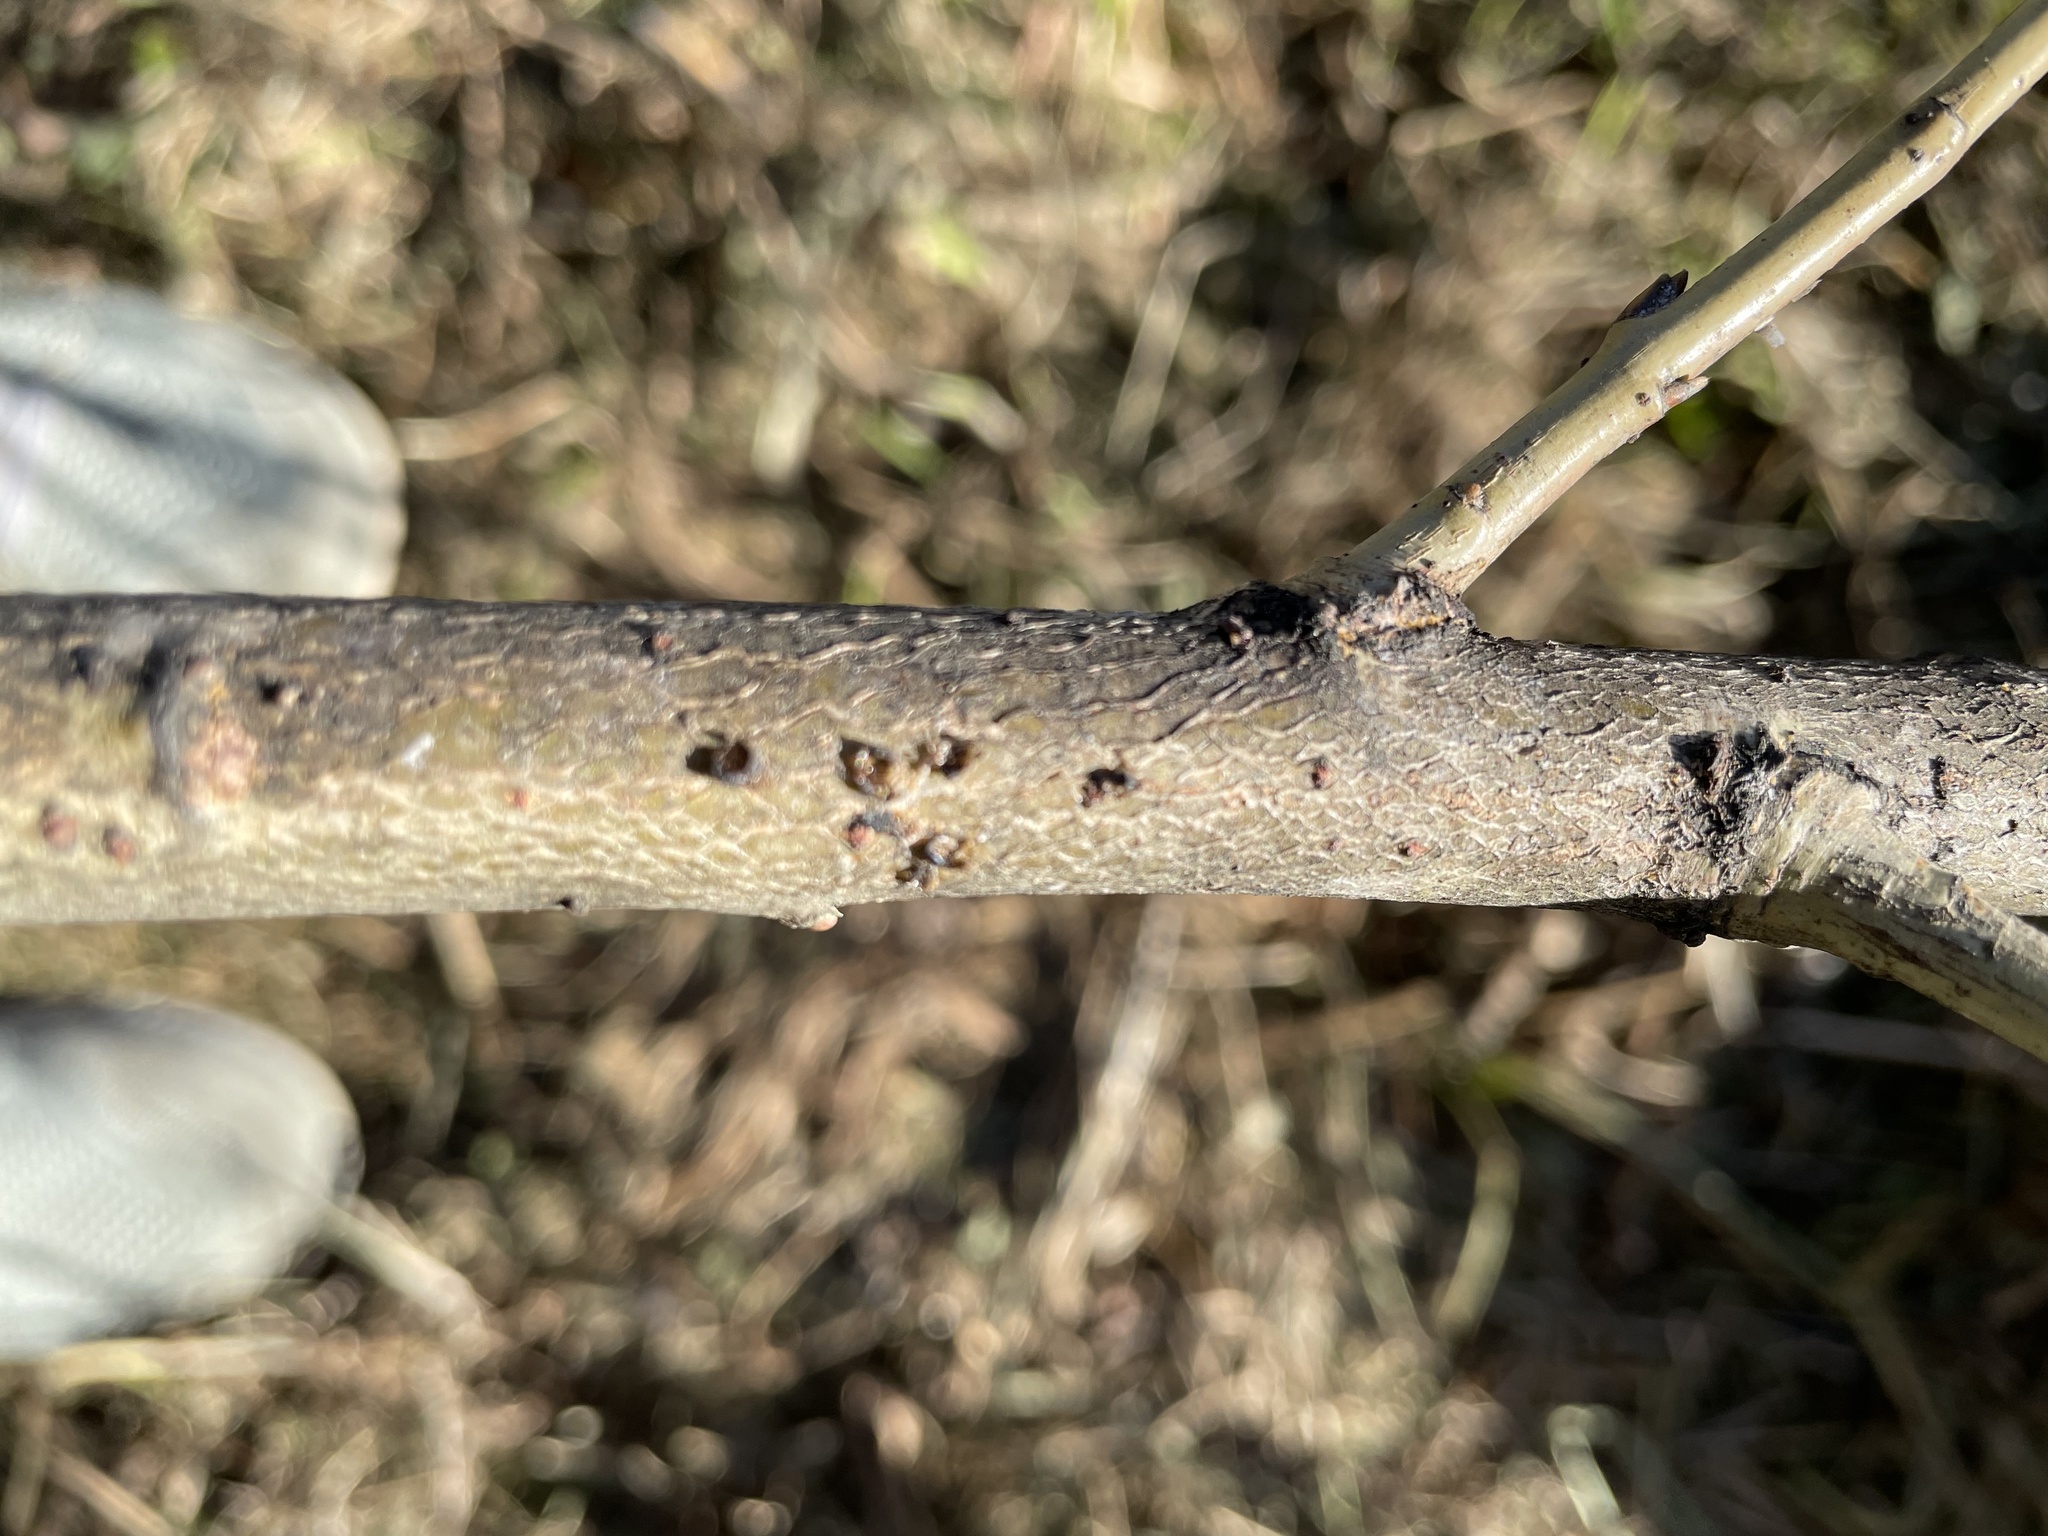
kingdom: Animalia
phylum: Arthropoda
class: Insecta
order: Hymenoptera
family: Braconidae
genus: Pauesia
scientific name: Pauesia nigrovaria
